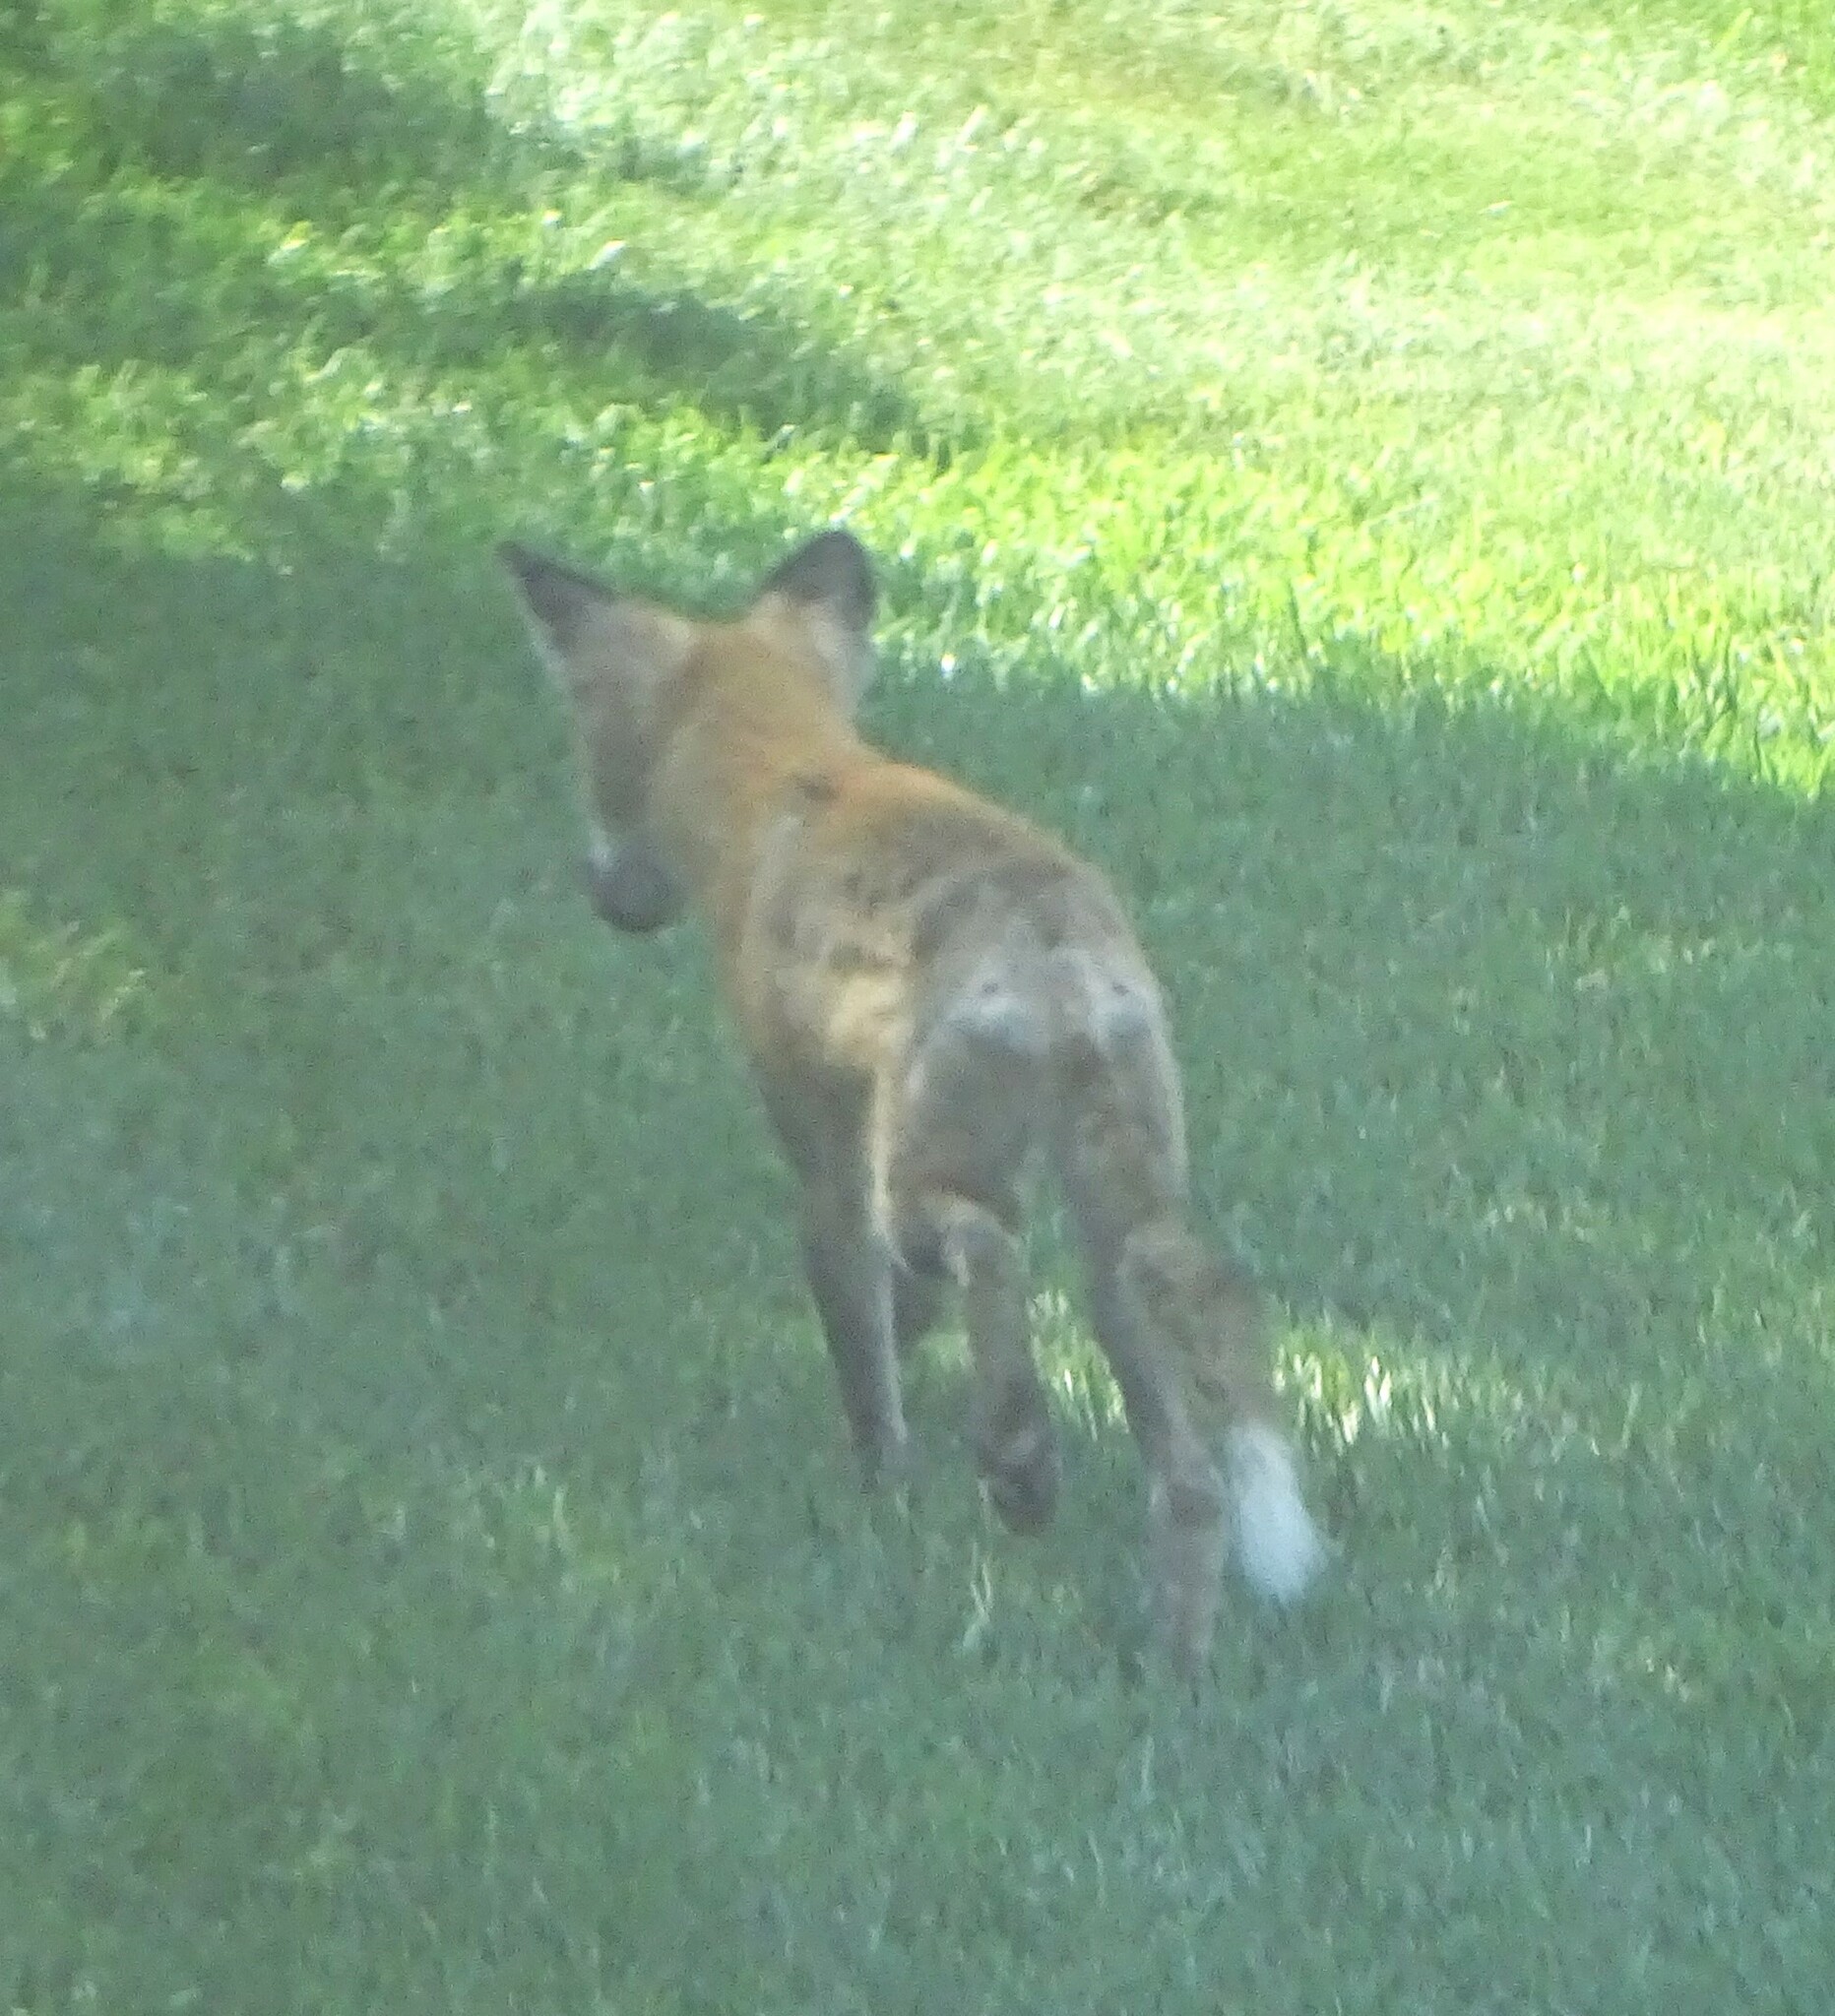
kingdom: Animalia
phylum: Chordata
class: Mammalia
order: Carnivora
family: Canidae
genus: Vulpes
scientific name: Vulpes vulpes
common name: Red fox
